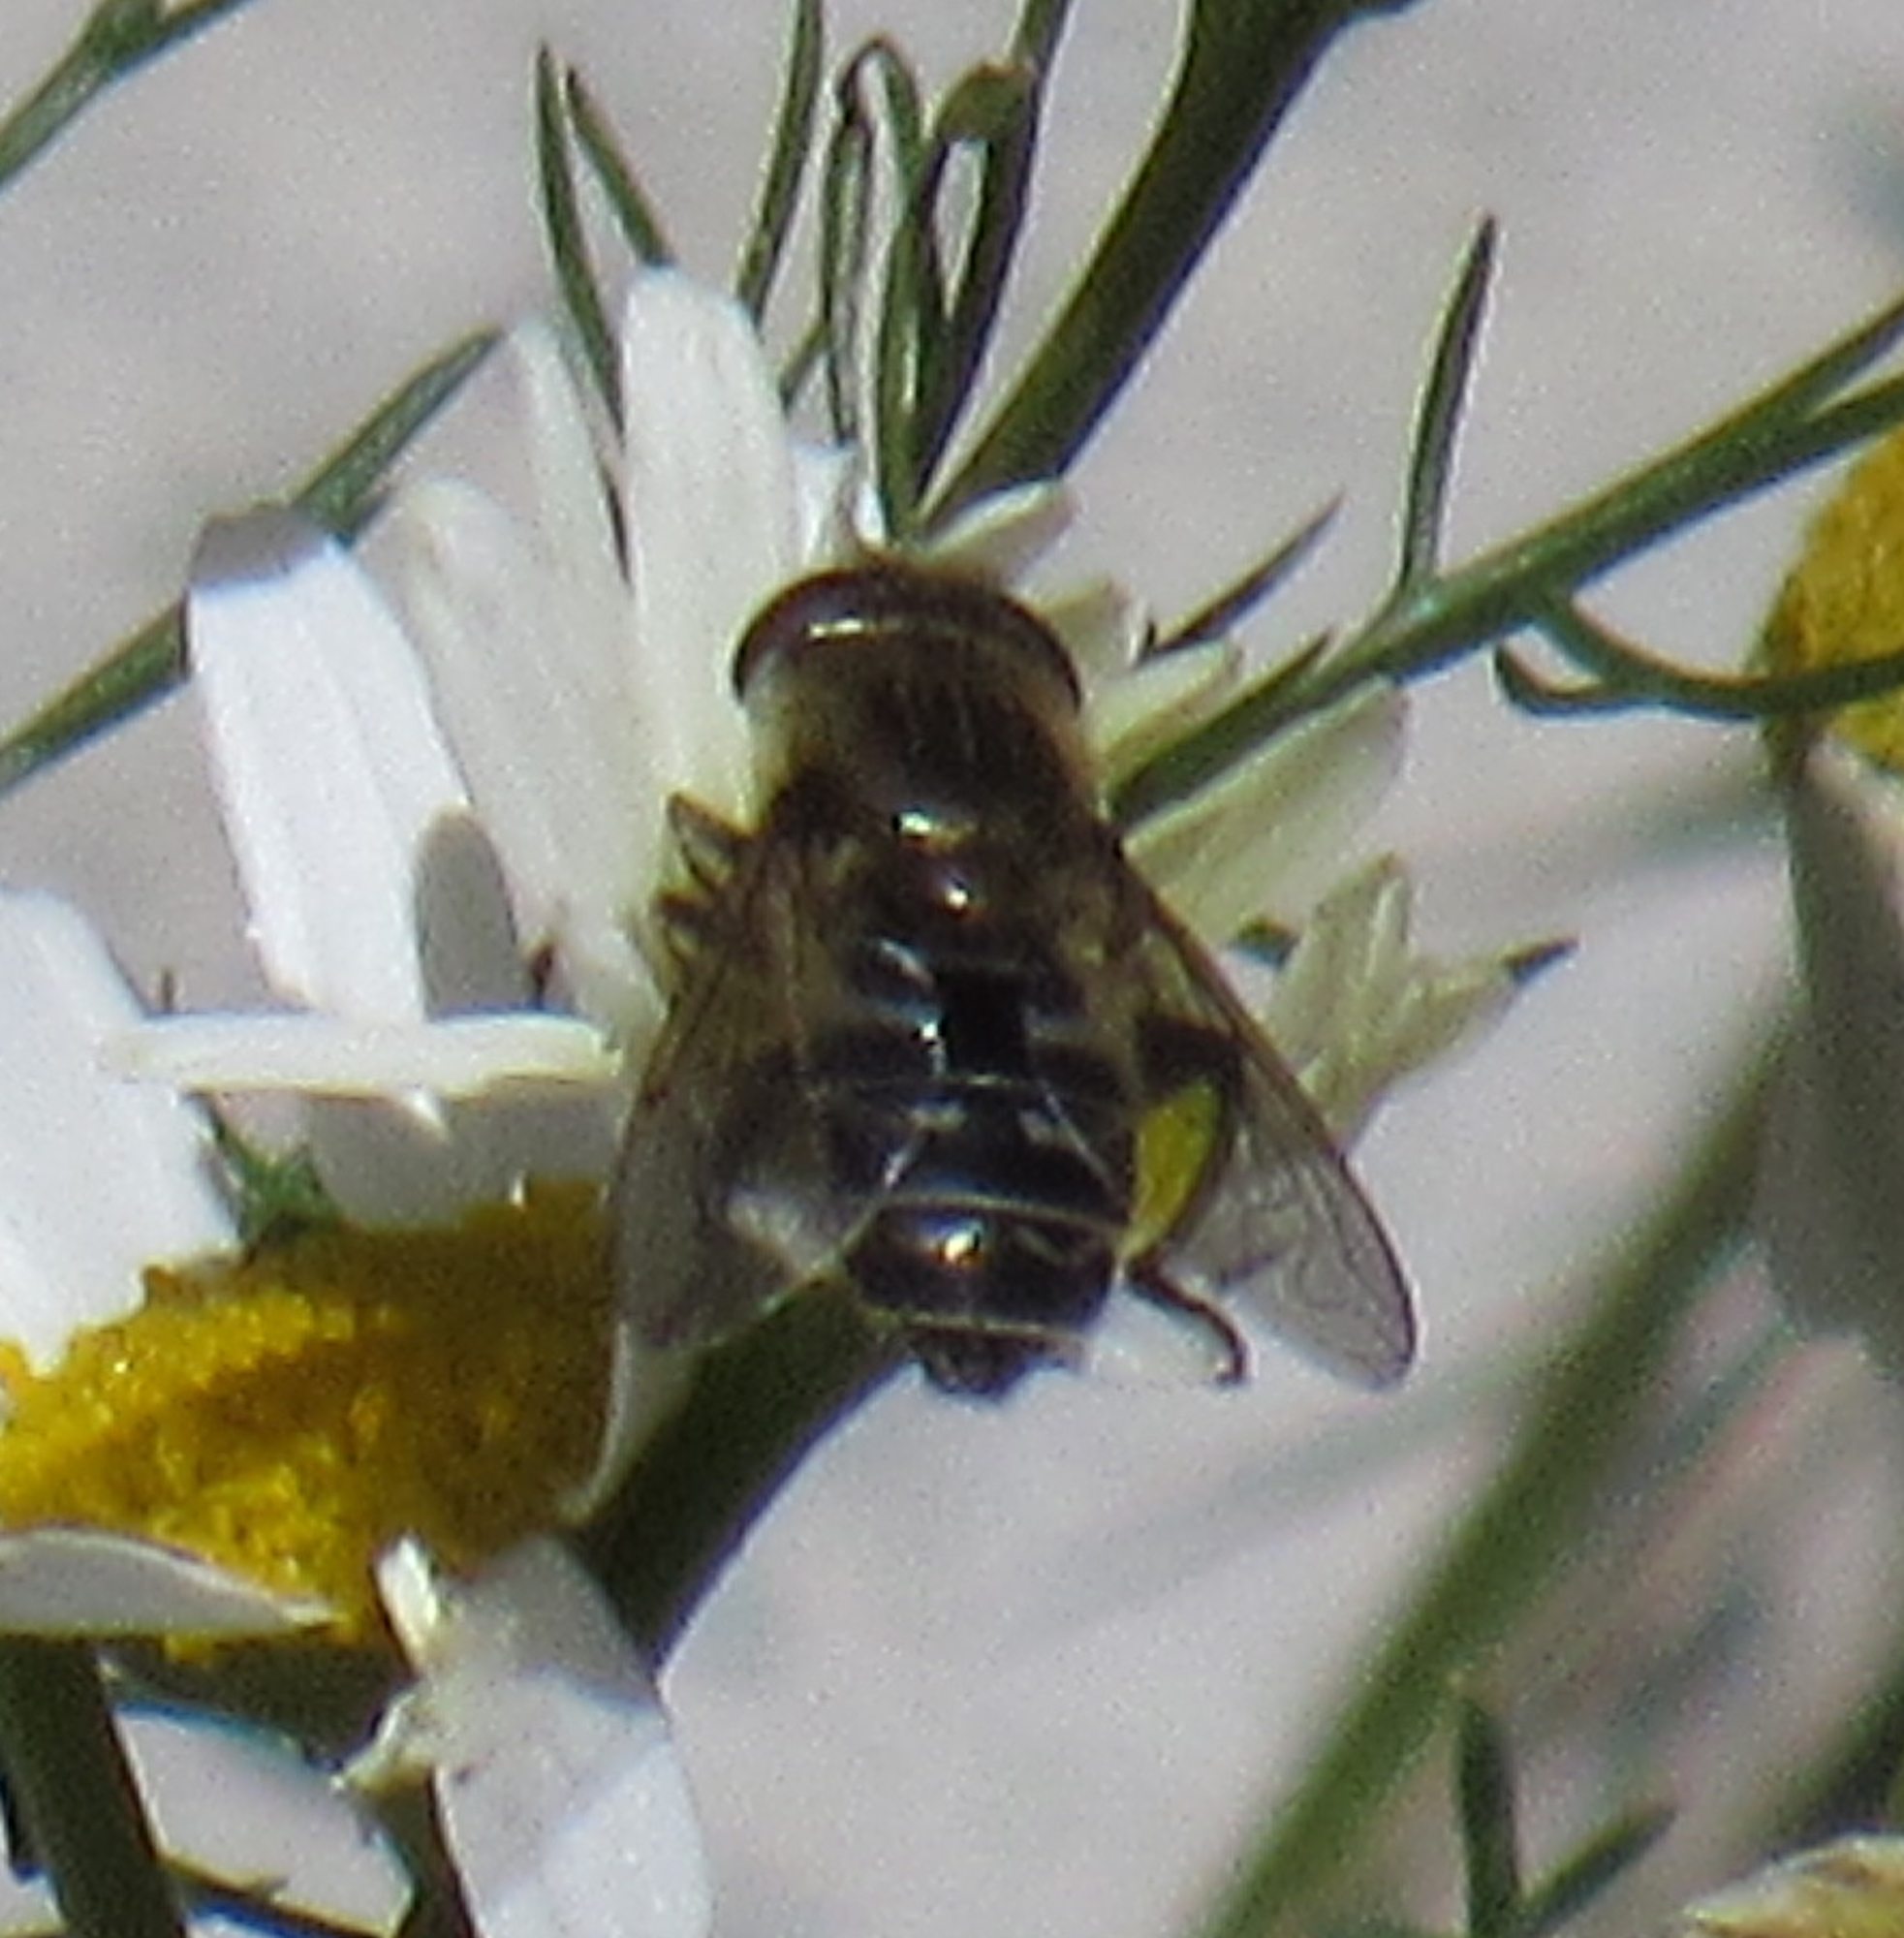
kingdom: Animalia
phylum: Arthropoda
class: Insecta
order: Diptera
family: Syrphidae
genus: Asemosyrphus
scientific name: Asemosyrphus polygrammus
